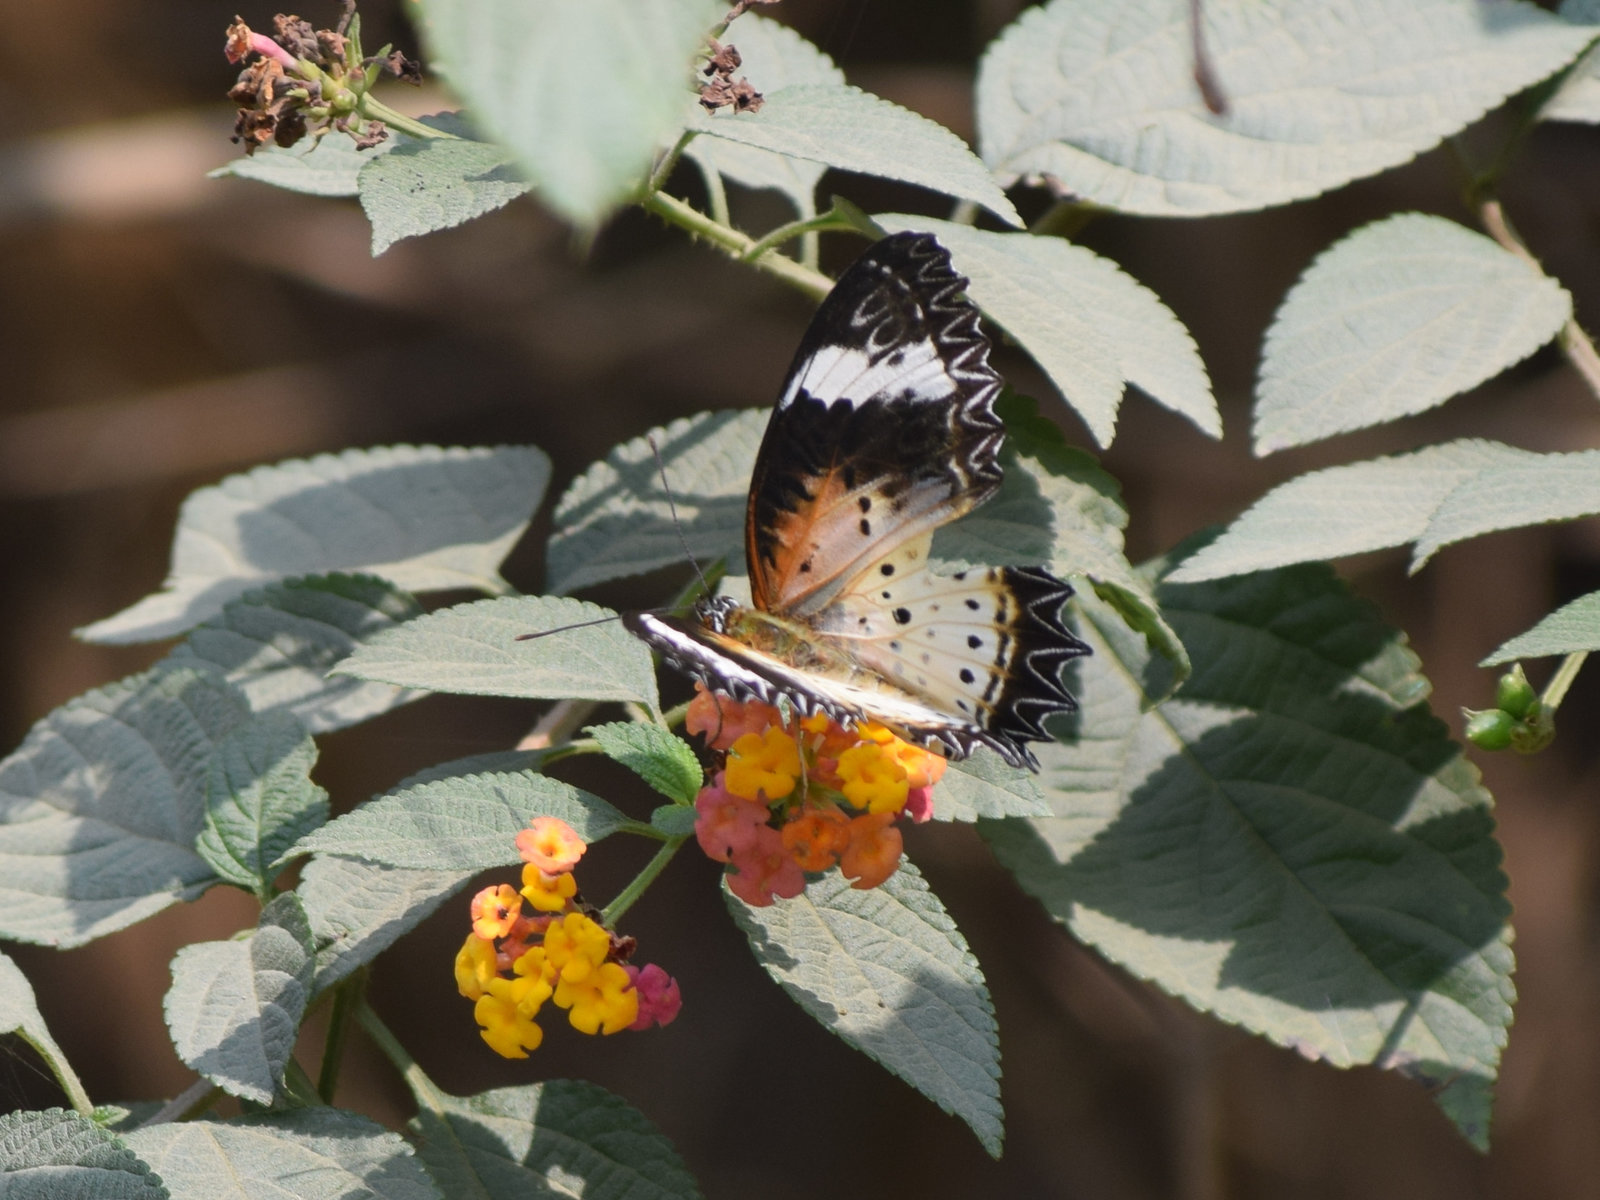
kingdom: Animalia
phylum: Arthropoda
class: Insecta
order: Lepidoptera
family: Nymphalidae
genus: Cethosia
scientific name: Cethosia cyane
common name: Leopard lacewing butterfly
